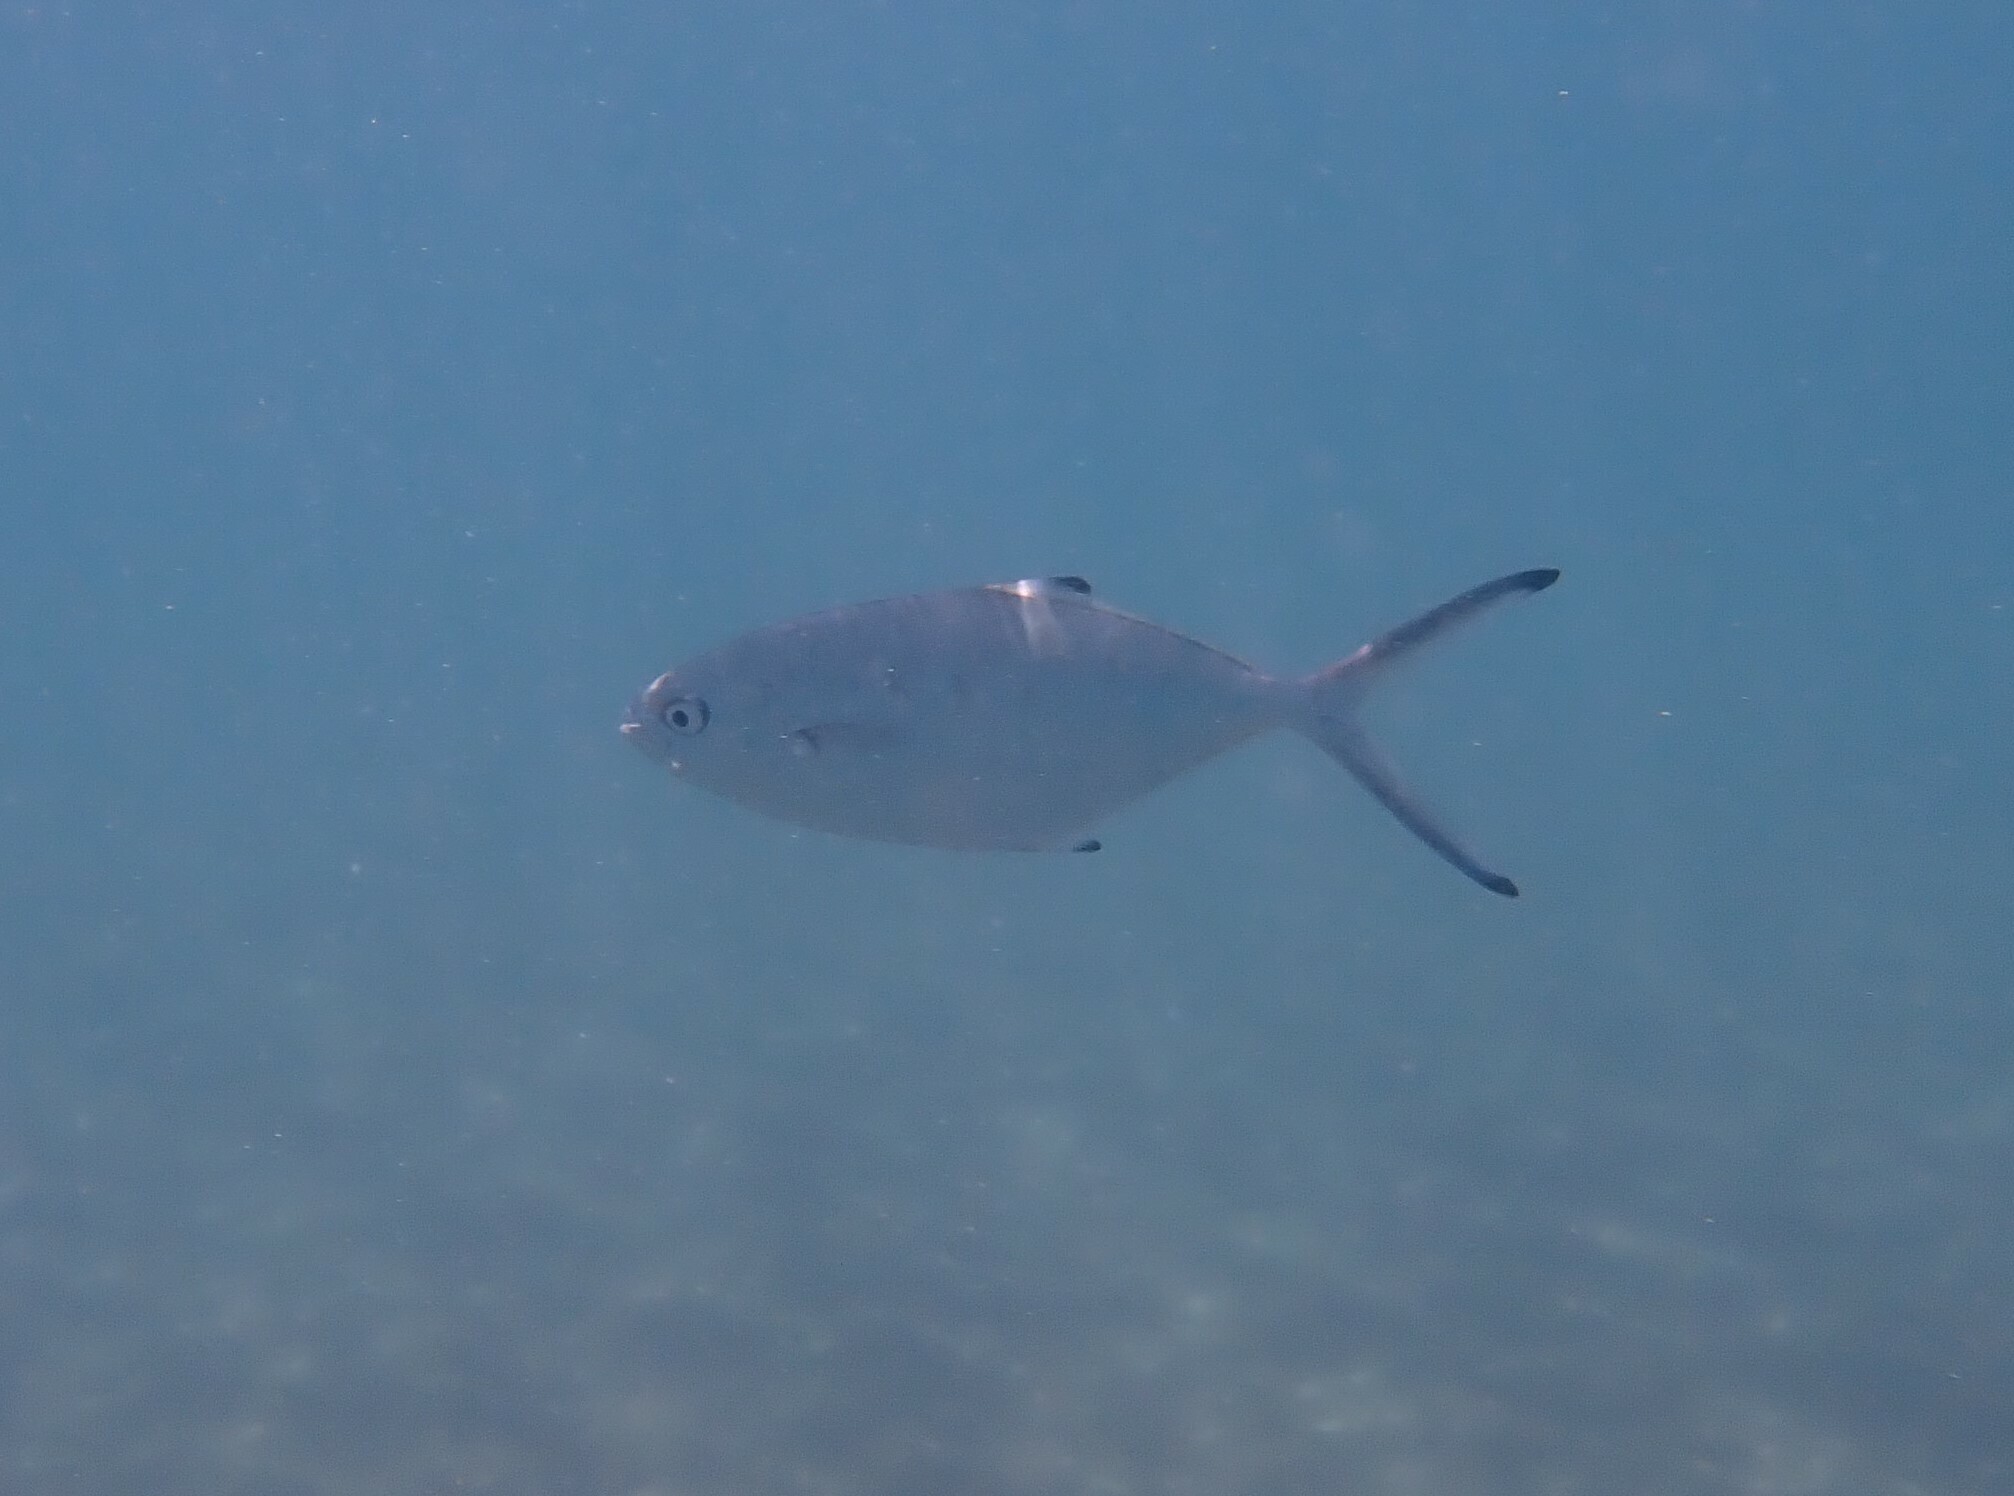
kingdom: Animalia
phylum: Chordata
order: Perciformes
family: Carangidae
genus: Trachinotus
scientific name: Trachinotus ovatus
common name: Pompano
